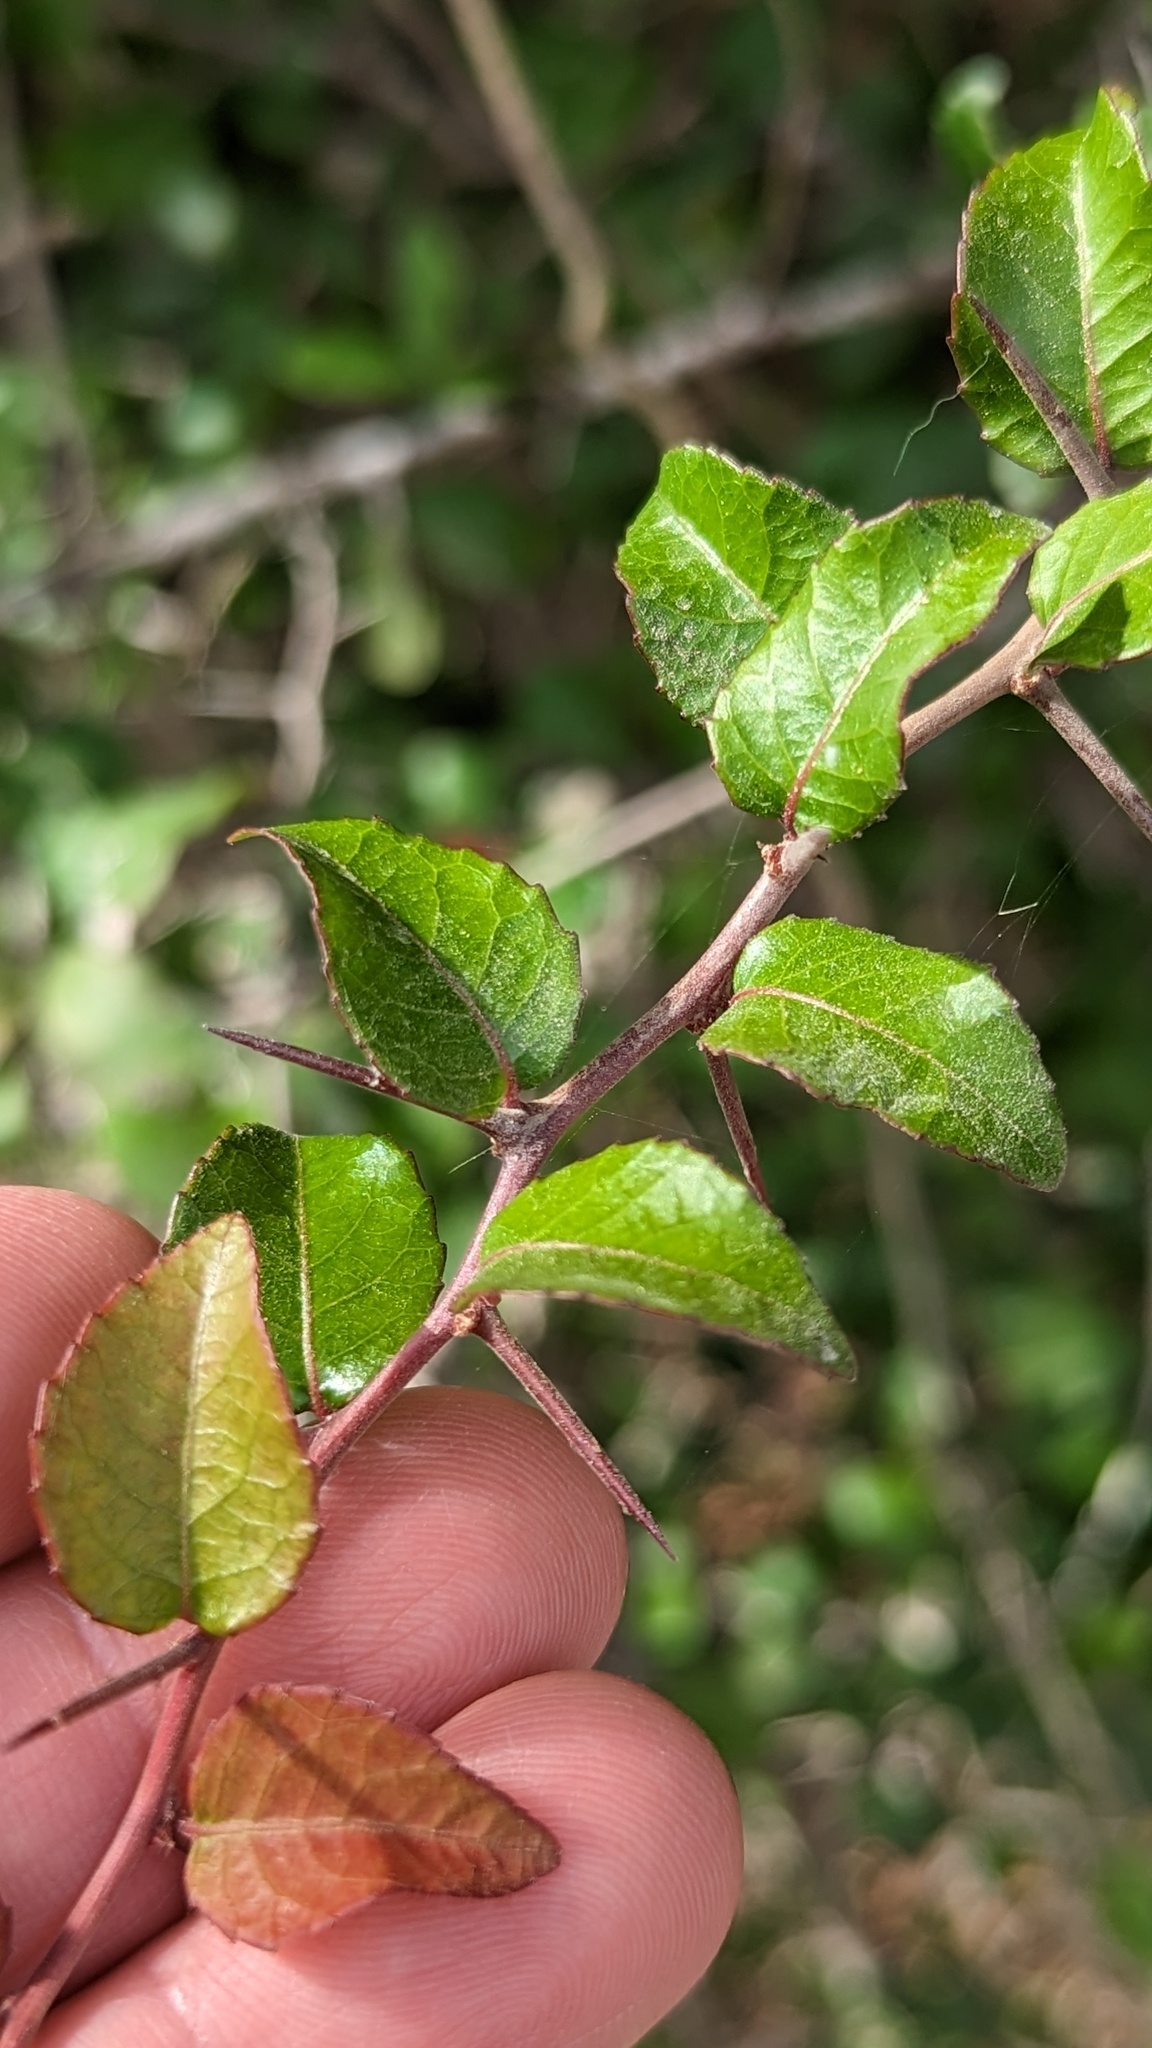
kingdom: Plantae
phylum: Tracheophyta
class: Magnoliopsida
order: Malpighiales
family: Salicaceae
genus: Xylosma
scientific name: Xylosma flexuosa
